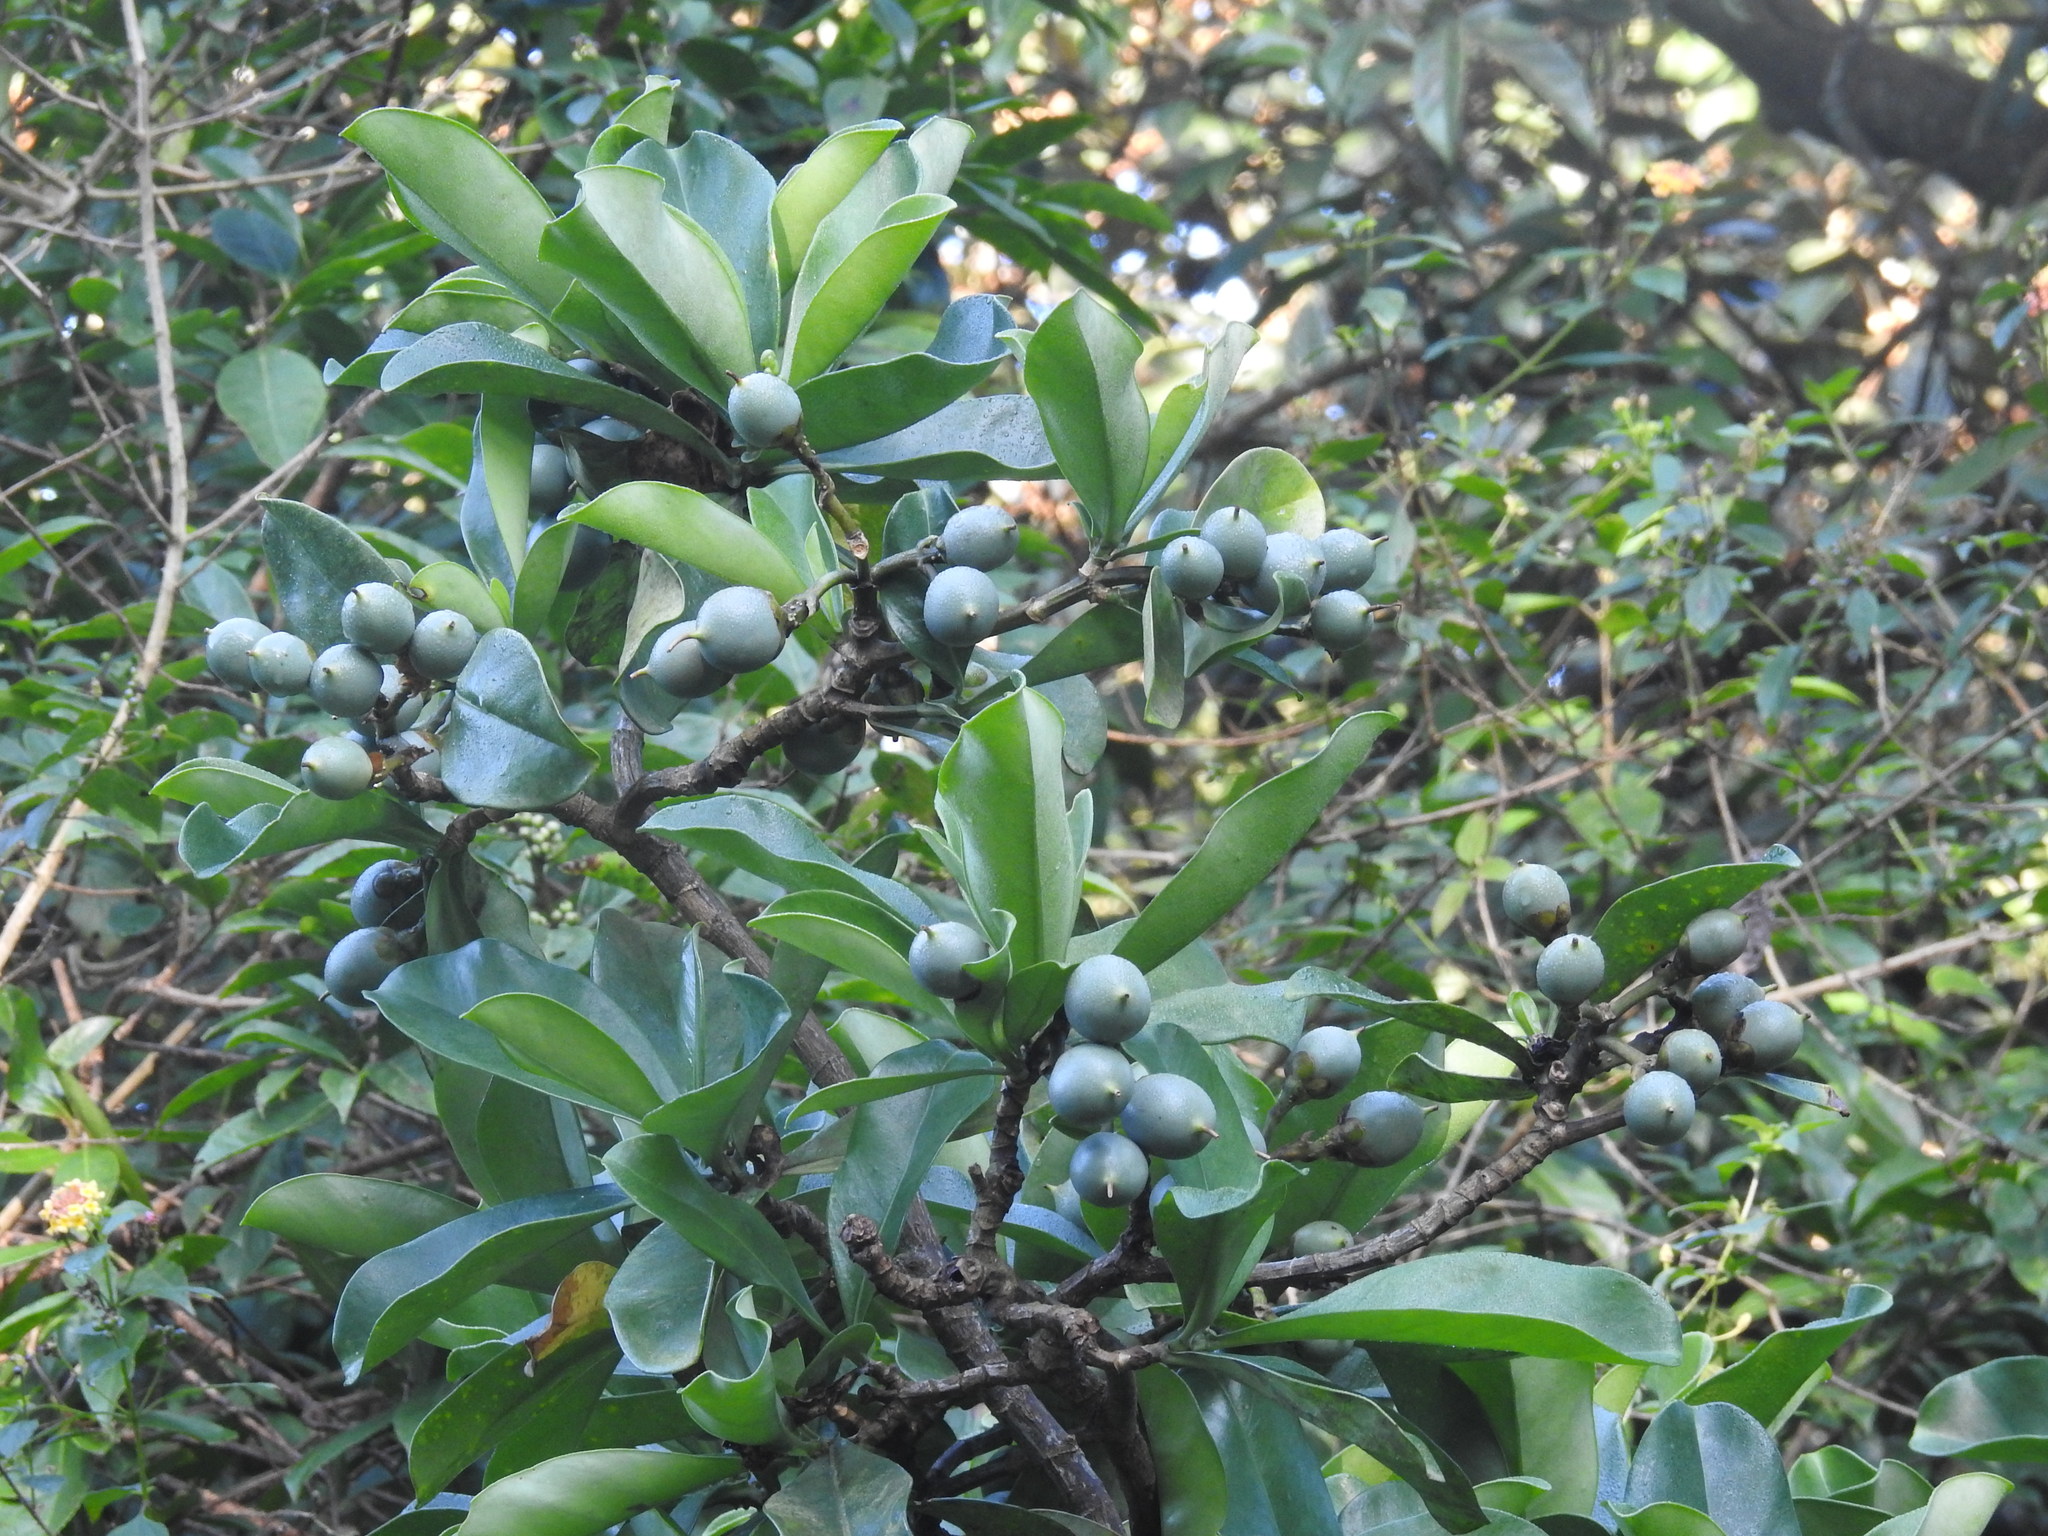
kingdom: Plantae
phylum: Tracheophyta
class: Magnoliopsida
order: Gentianales
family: Gentianaceae
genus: Fagraea
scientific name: Fagraea ceilanica
